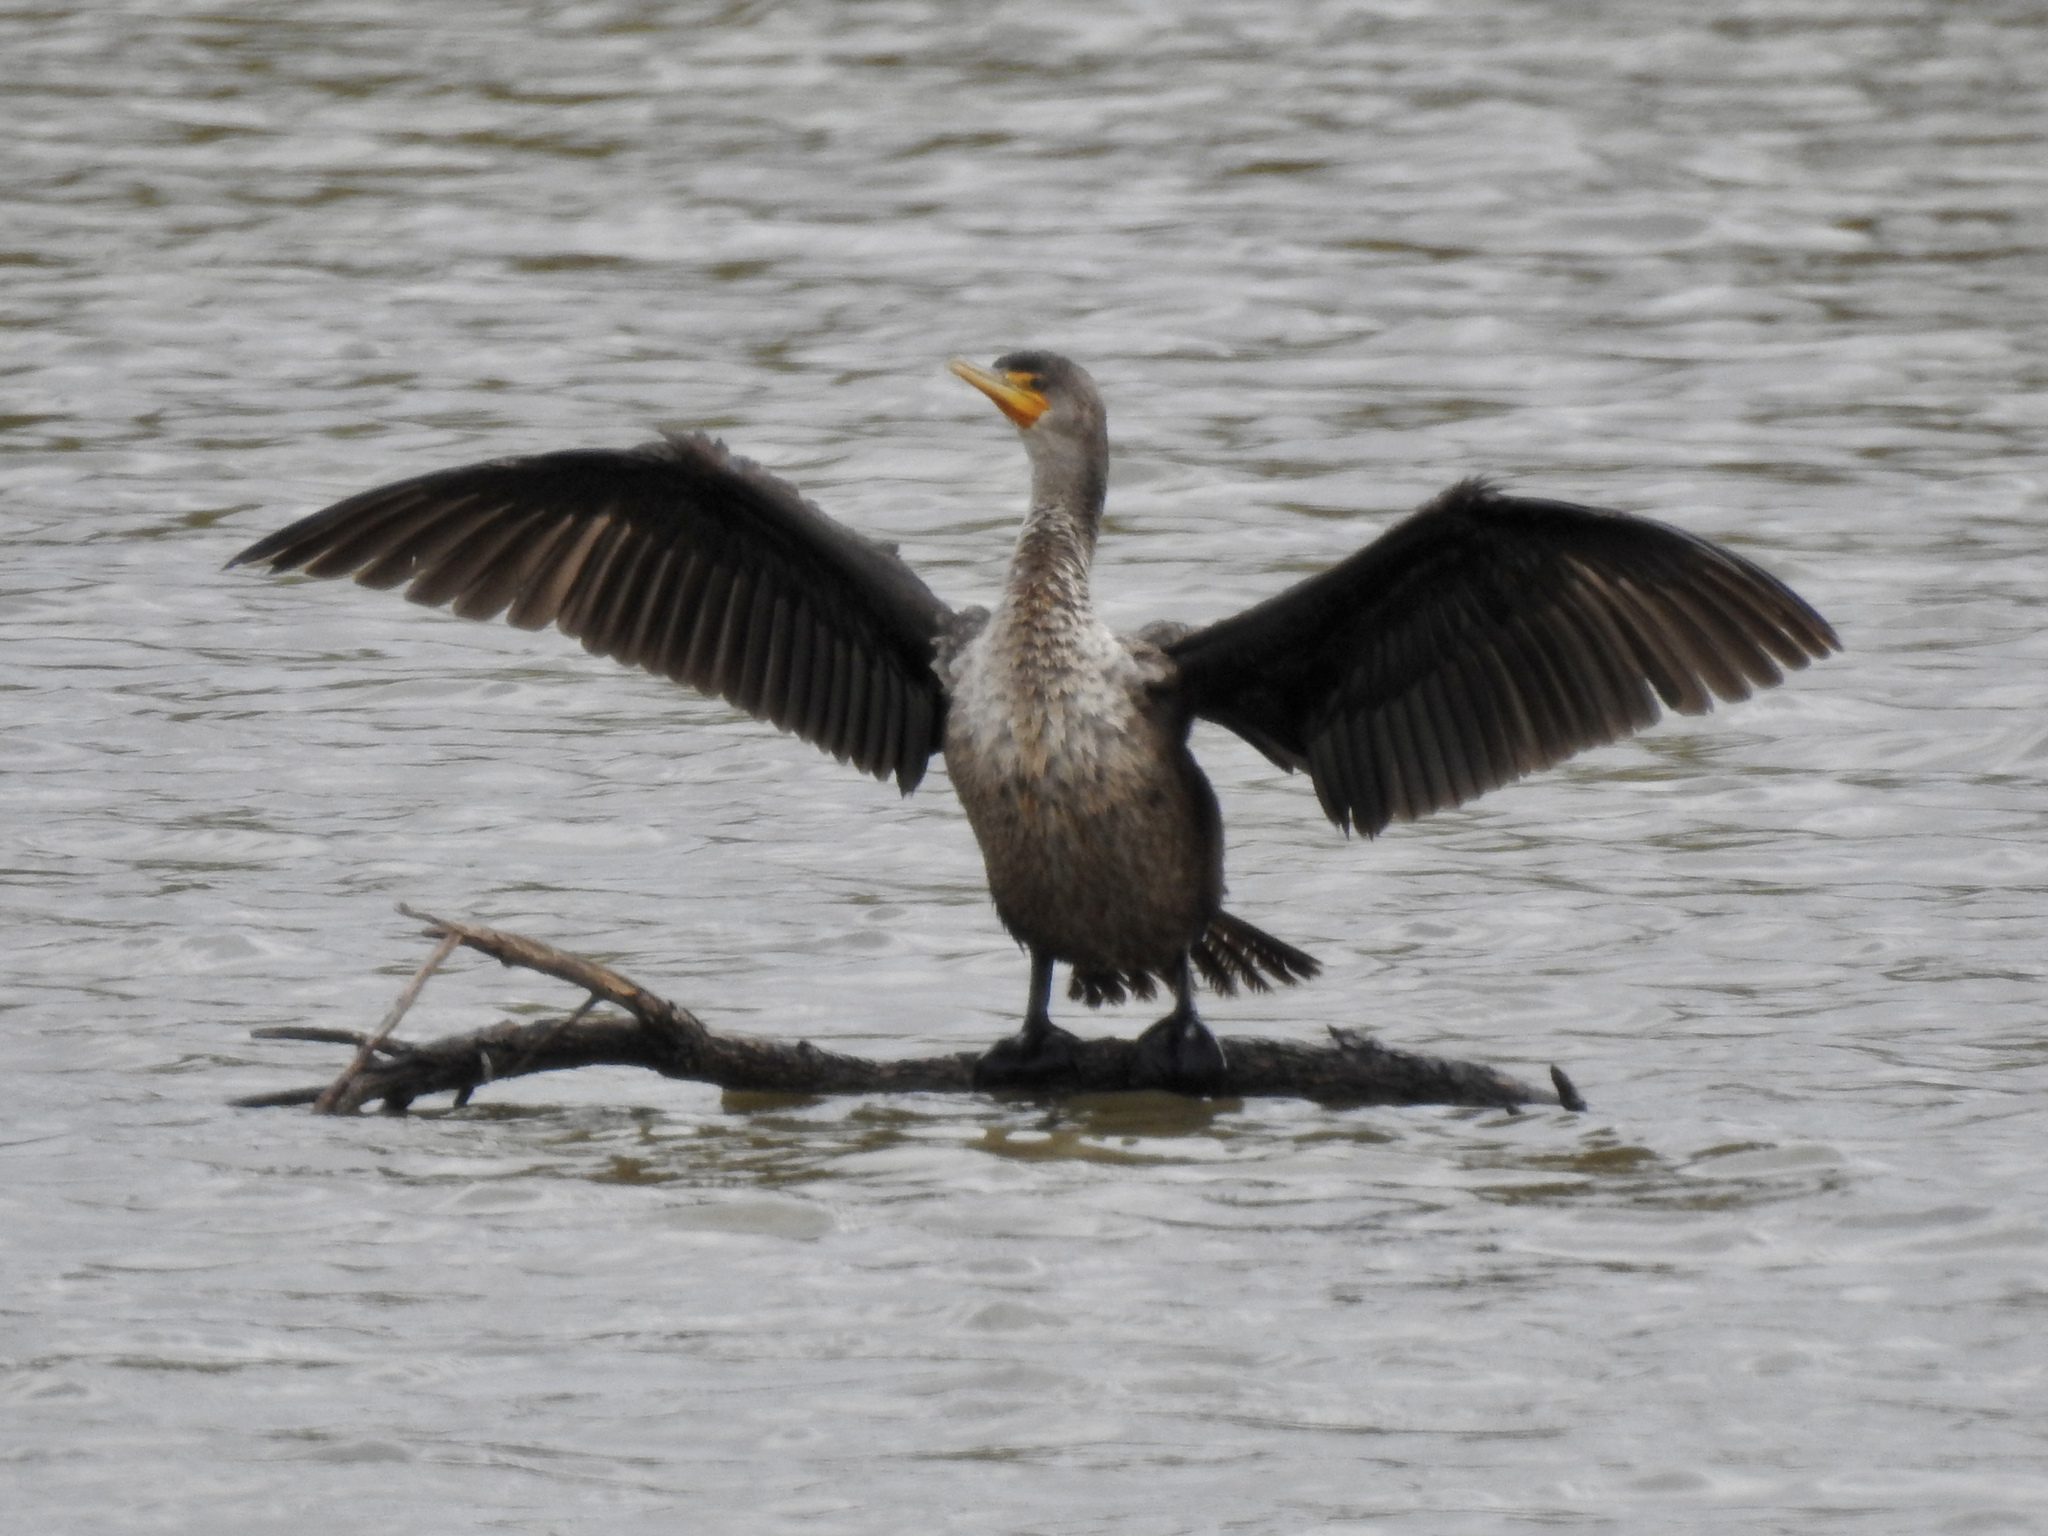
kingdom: Animalia
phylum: Chordata
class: Aves
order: Suliformes
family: Phalacrocoracidae
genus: Phalacrocorax
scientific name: Phalacrocorax auritus
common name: Double-crested cormorant
